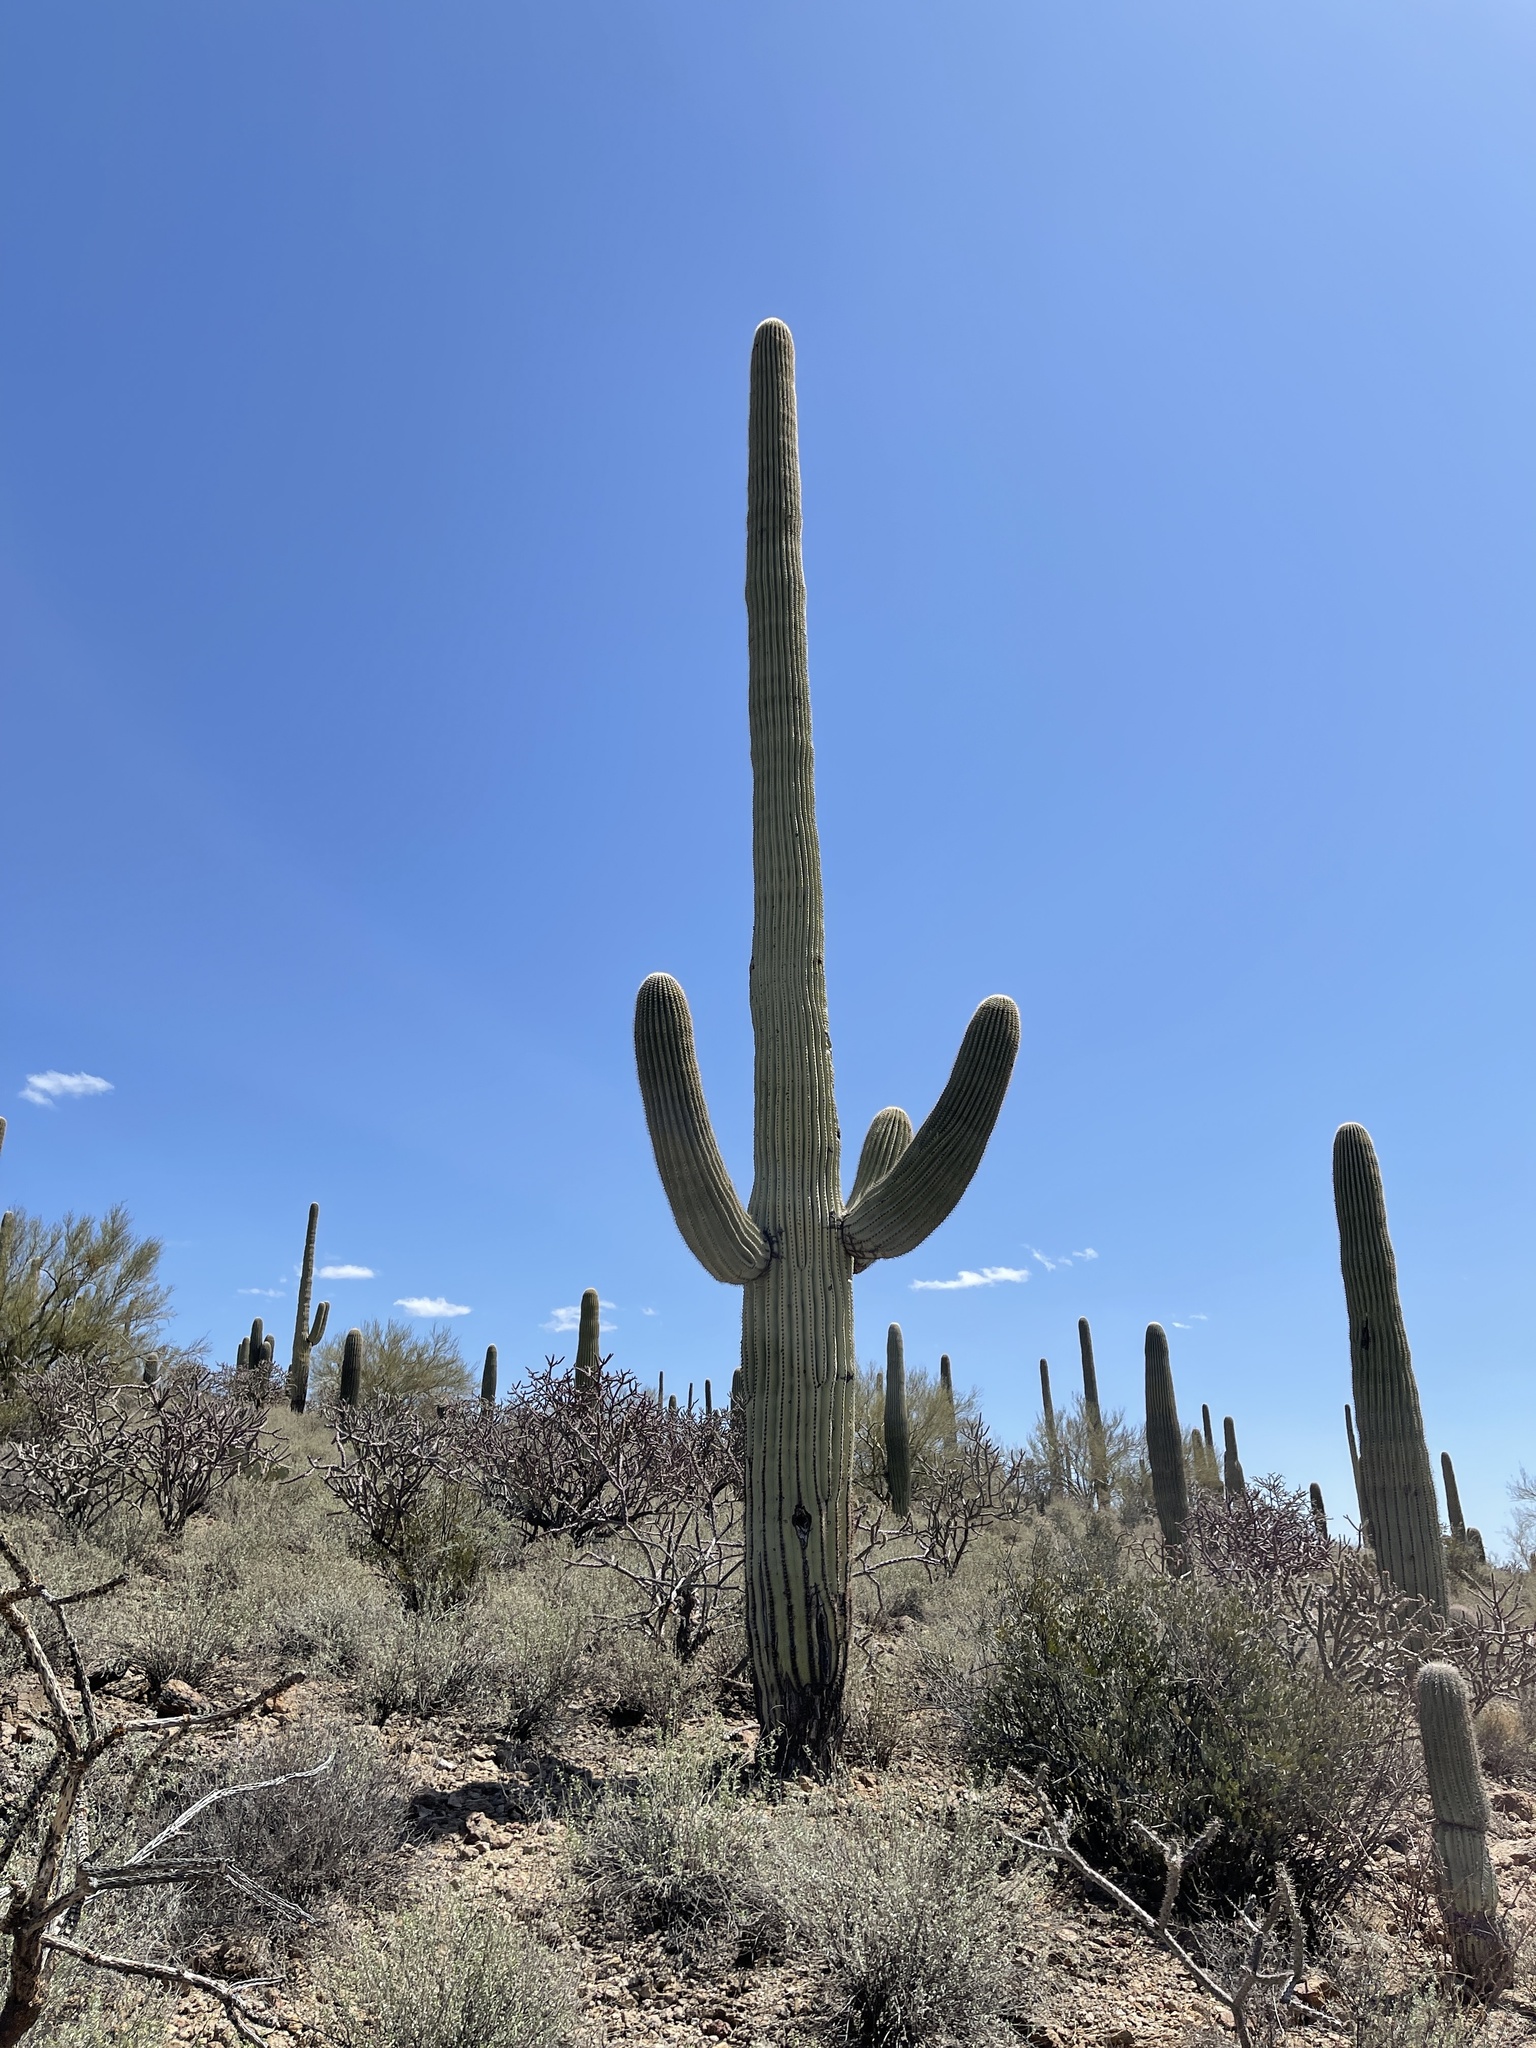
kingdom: Plantae
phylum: Tracheophyta
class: Magnoliopsida
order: Caryophyllales
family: Cactaceae
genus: Carnegiea
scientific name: Carnegiea gigantea
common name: Saguaro
